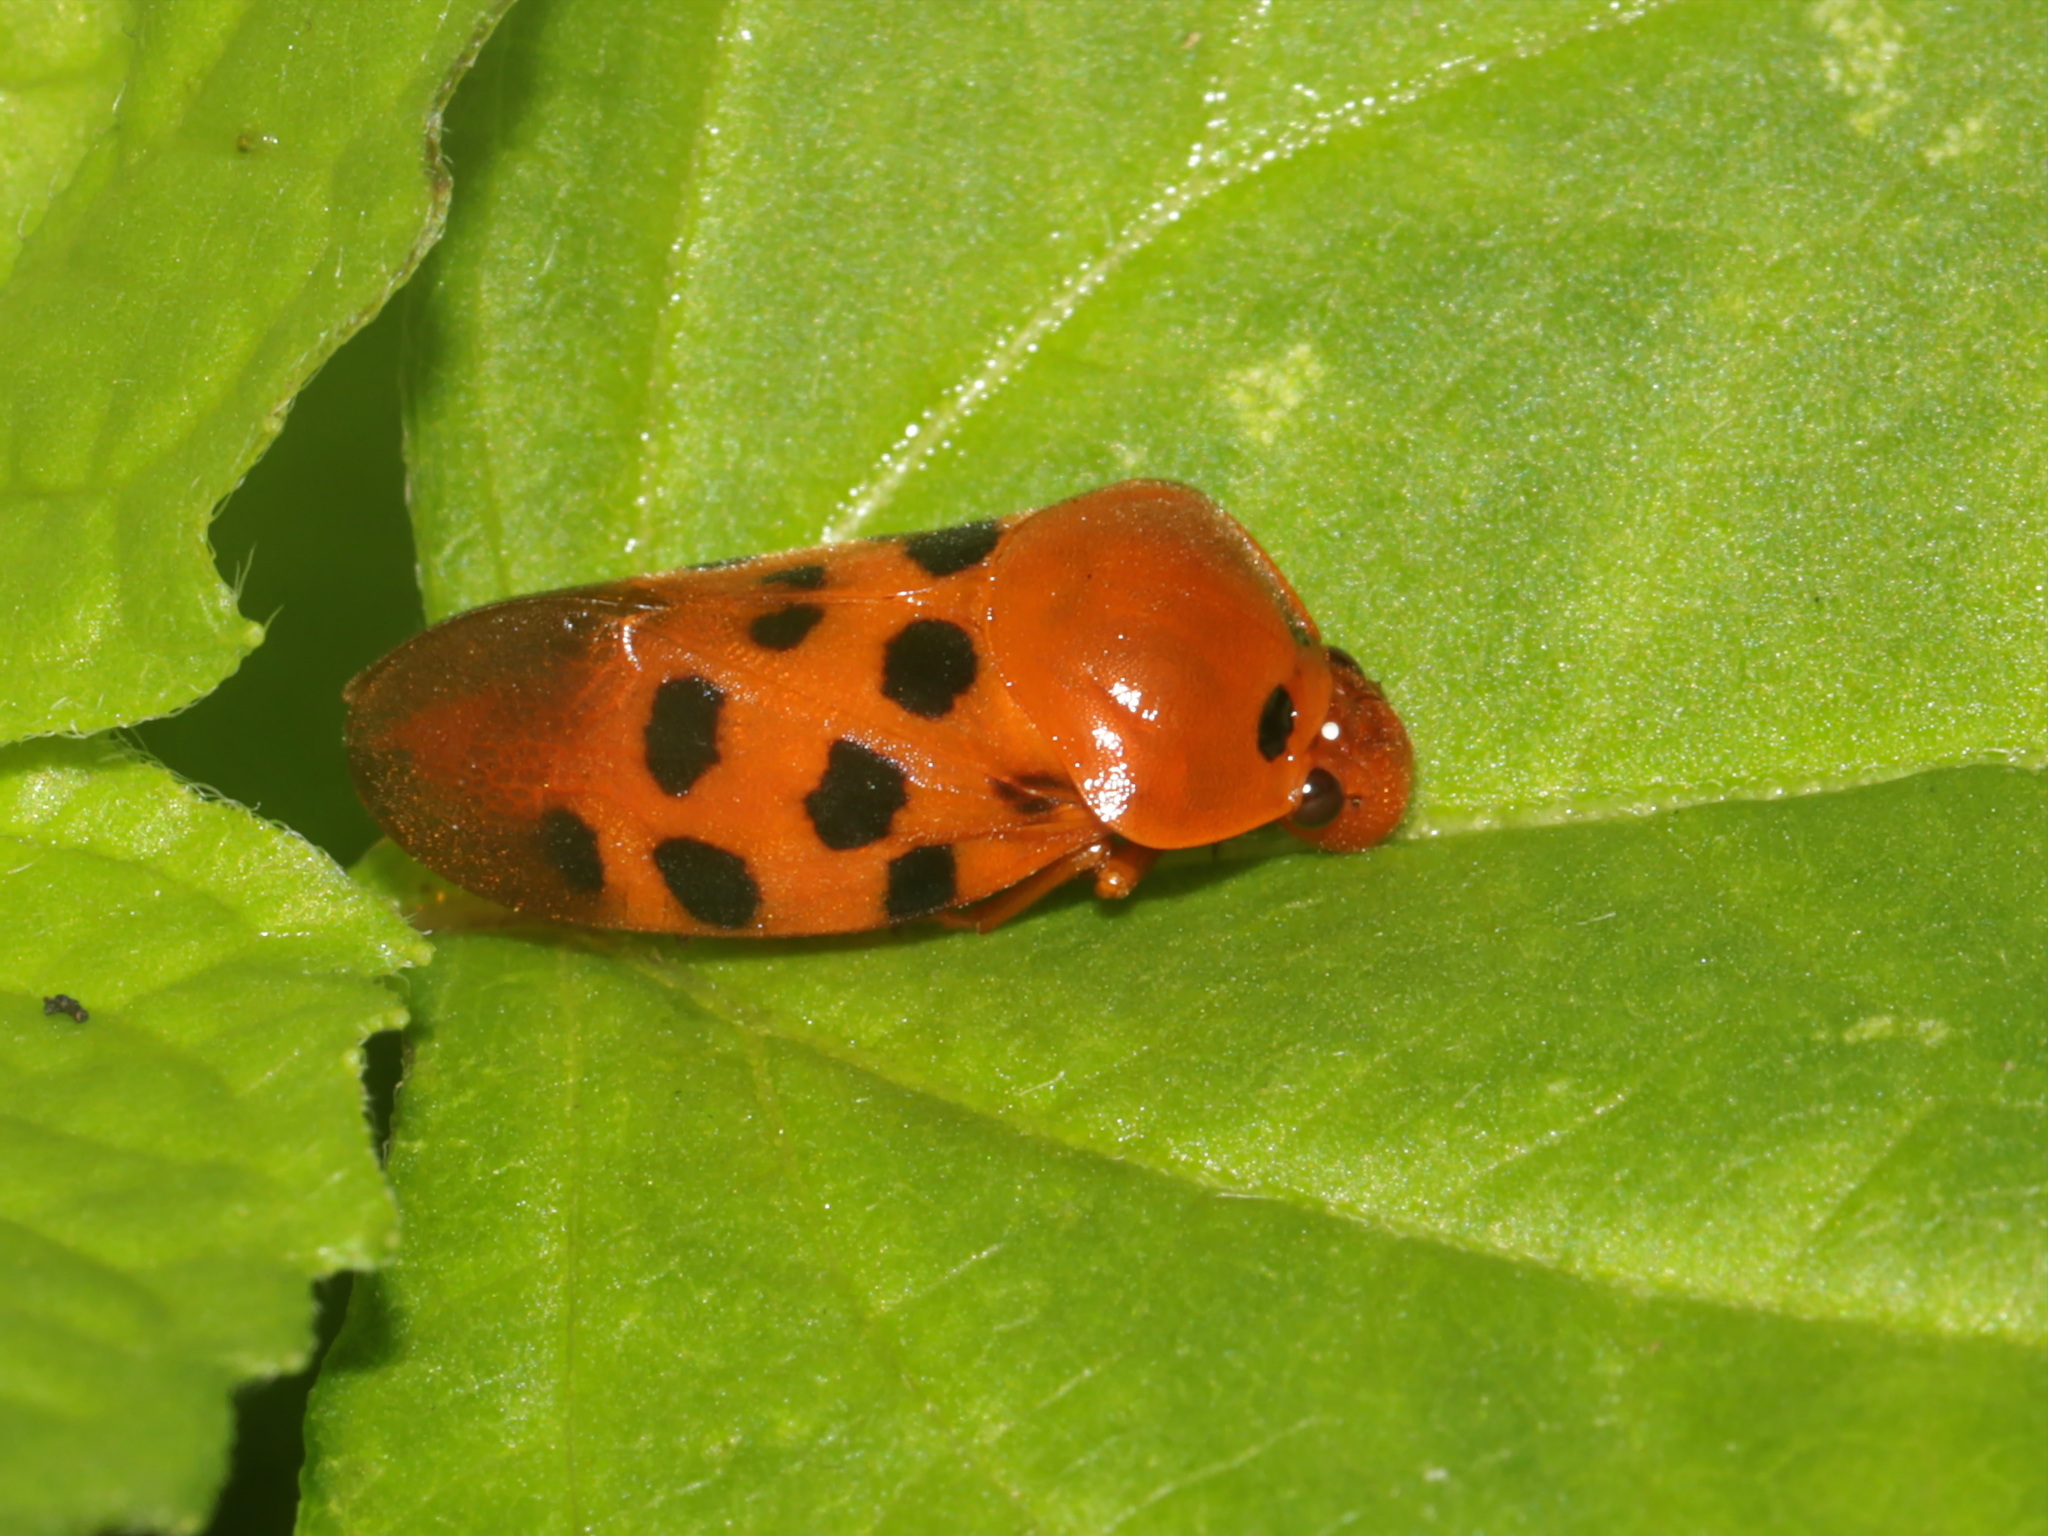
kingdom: Animalia
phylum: Arthropoda
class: Insecta
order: Hemiptera
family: Cercopidae
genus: Cosmoscarta
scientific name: Cosmoscarta septempunctata
